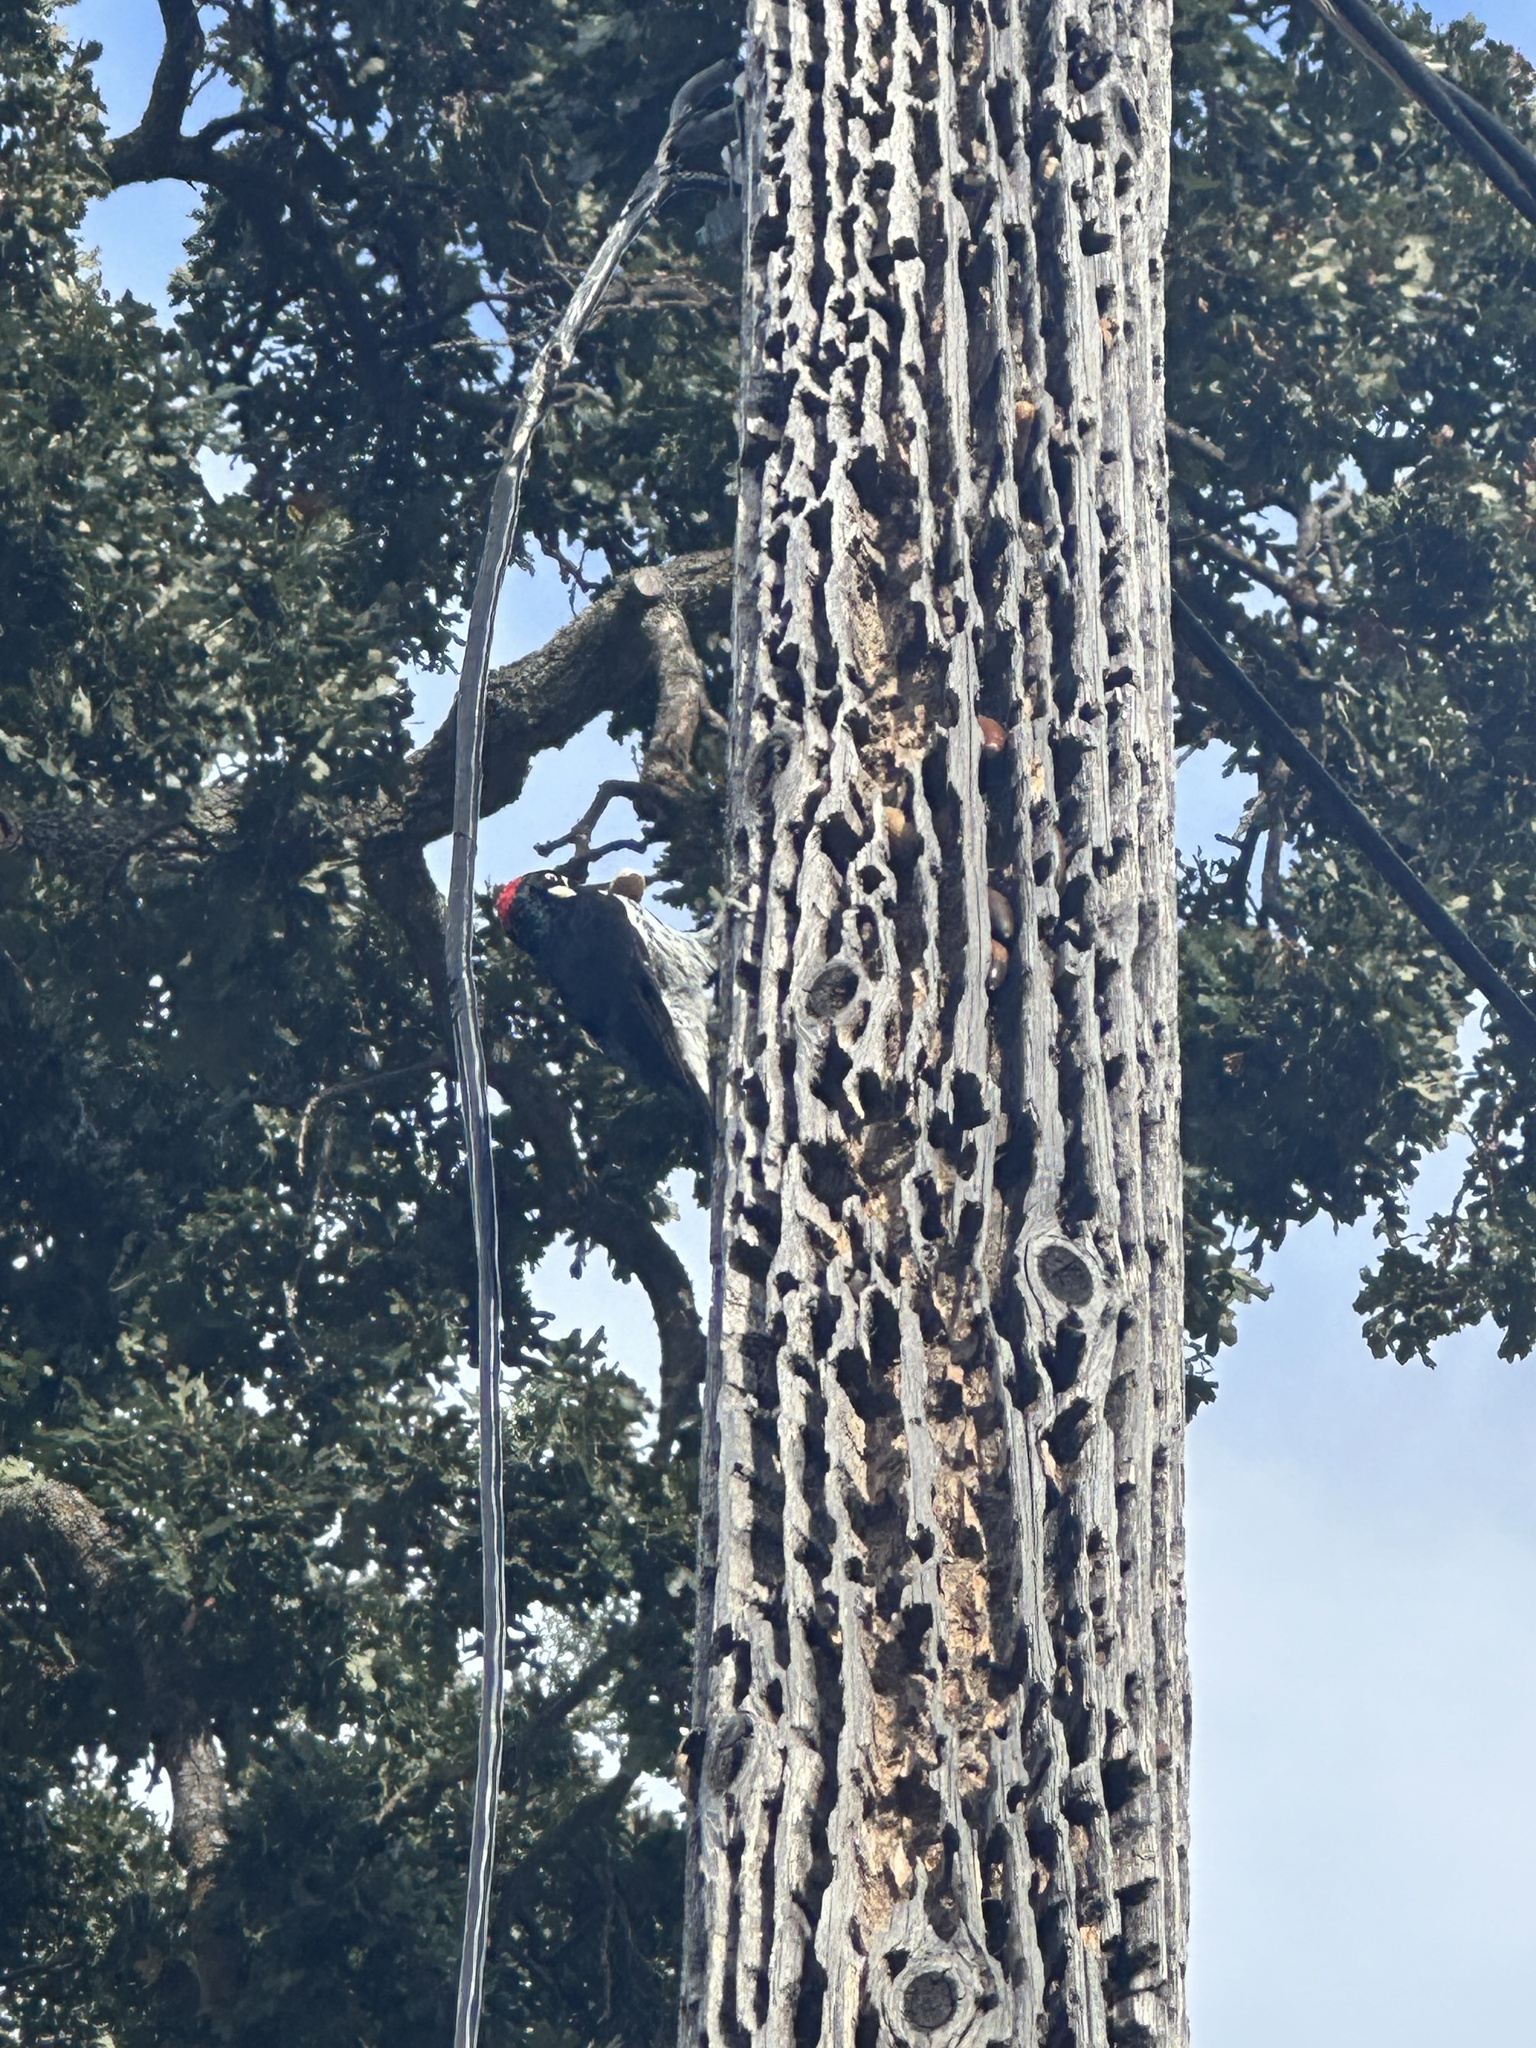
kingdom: Animalia
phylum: Chordata
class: Aves
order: Piciformes
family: Picidae
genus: Melanerpes
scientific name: Melanerpes formicivorus
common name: Acorn woodpecker
